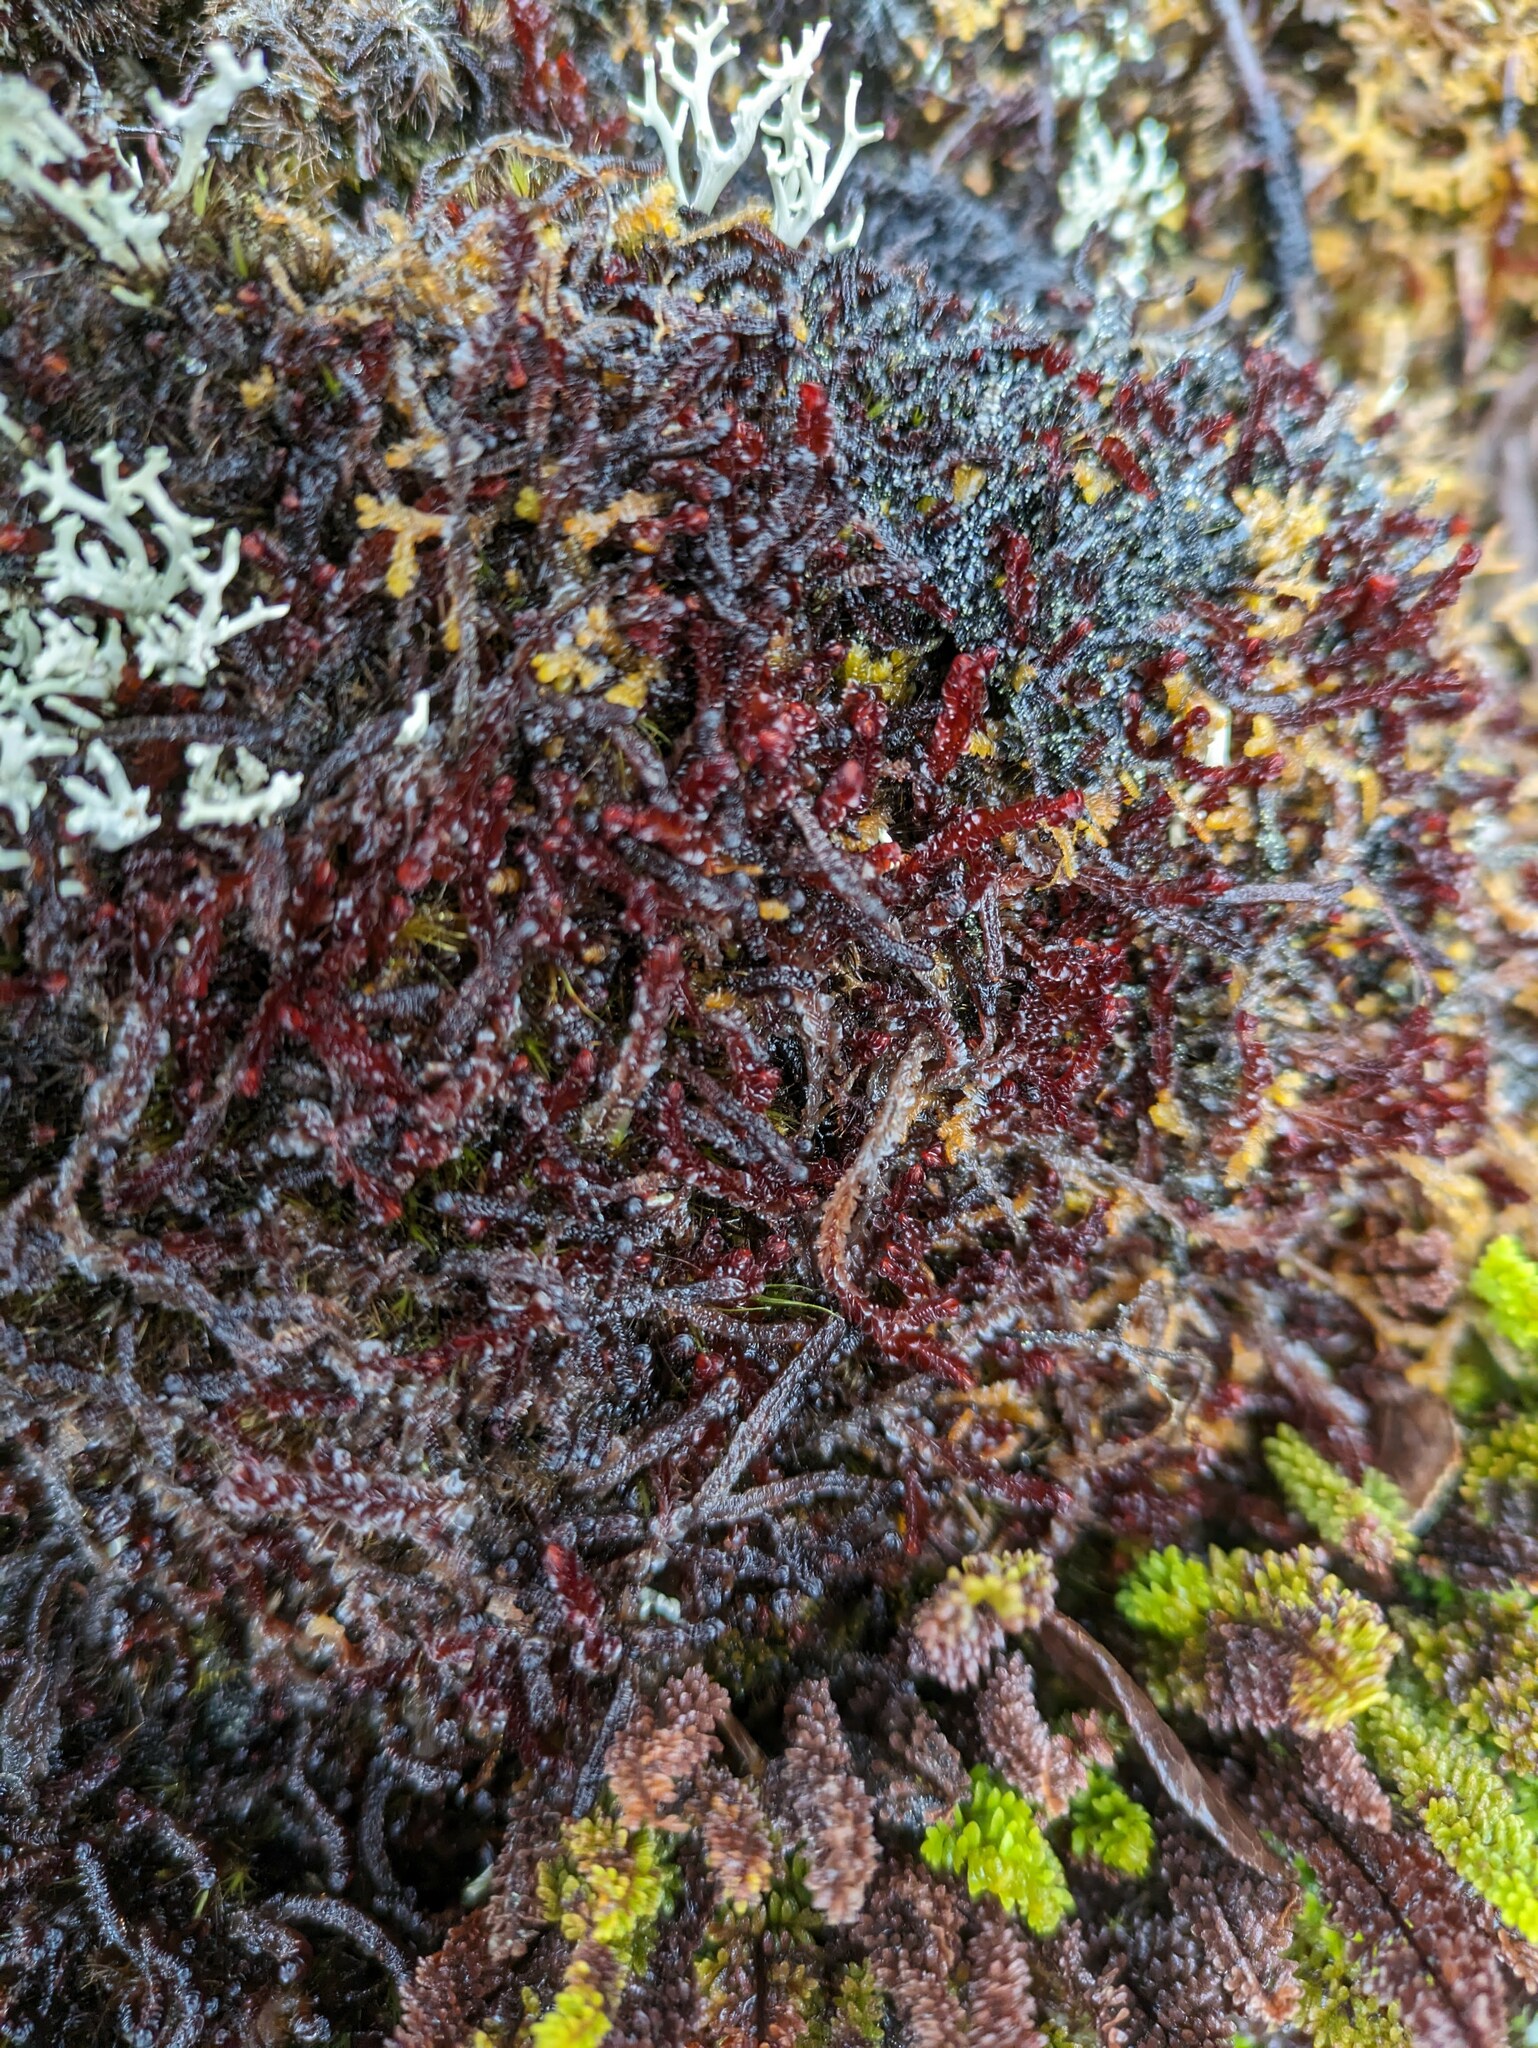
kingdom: Plantae
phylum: Marchantiophyta
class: Jungermanniopsida
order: Jungermanniales
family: Adelanthaceae
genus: Cuspidatula
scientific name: Cuspidatula robusta
